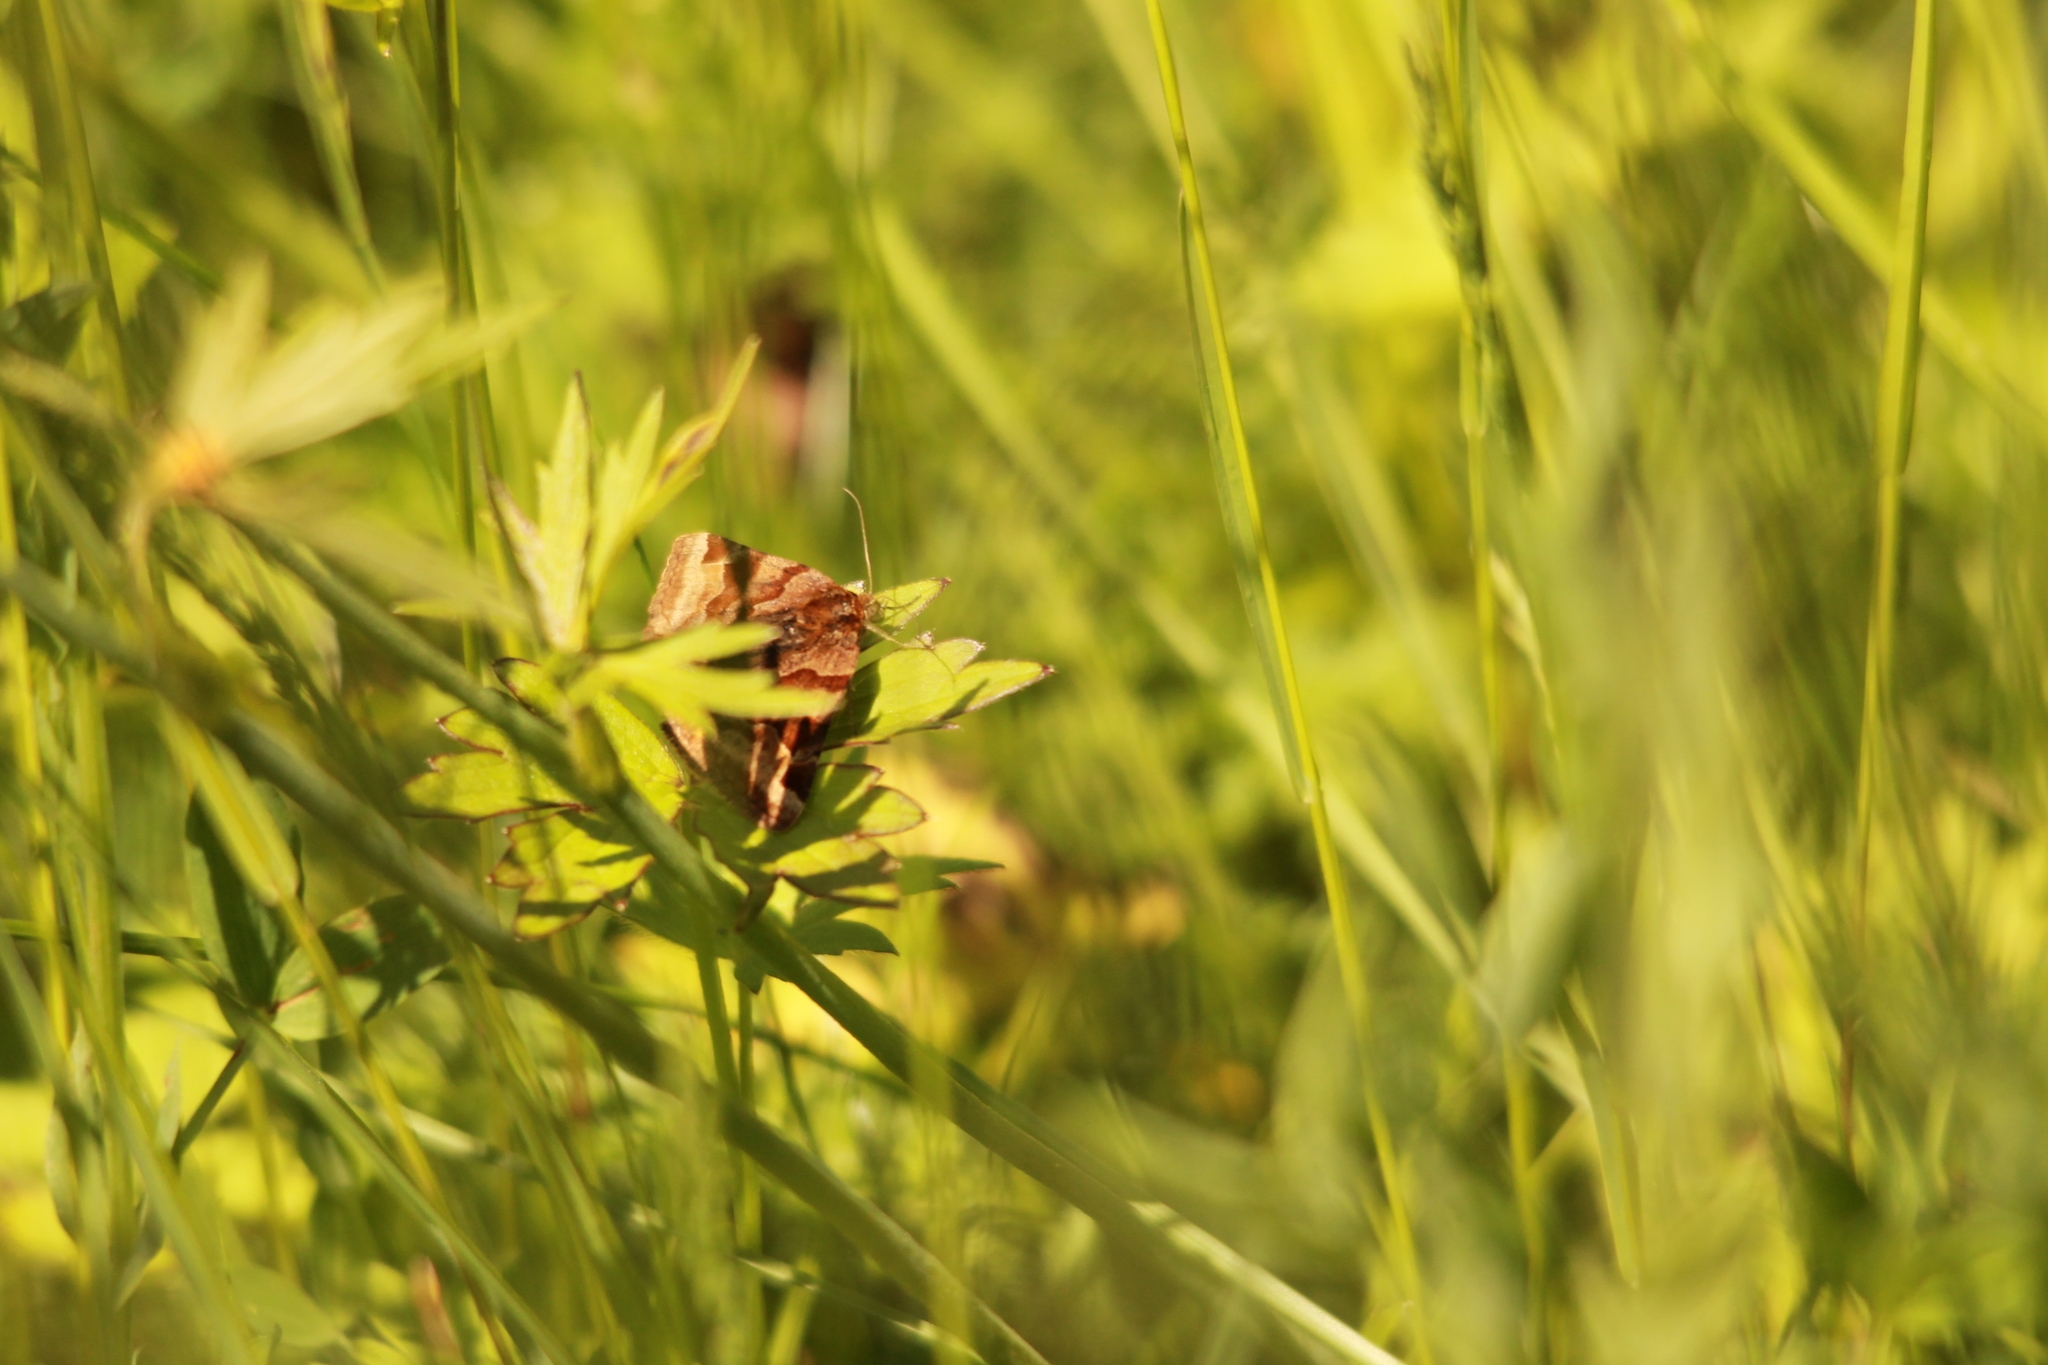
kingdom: Animalia
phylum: Arthropoda
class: Insecta
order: Lepidoptera
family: Erebidae
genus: Euclidia
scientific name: Euclidia glyphica
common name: Burnet companion
